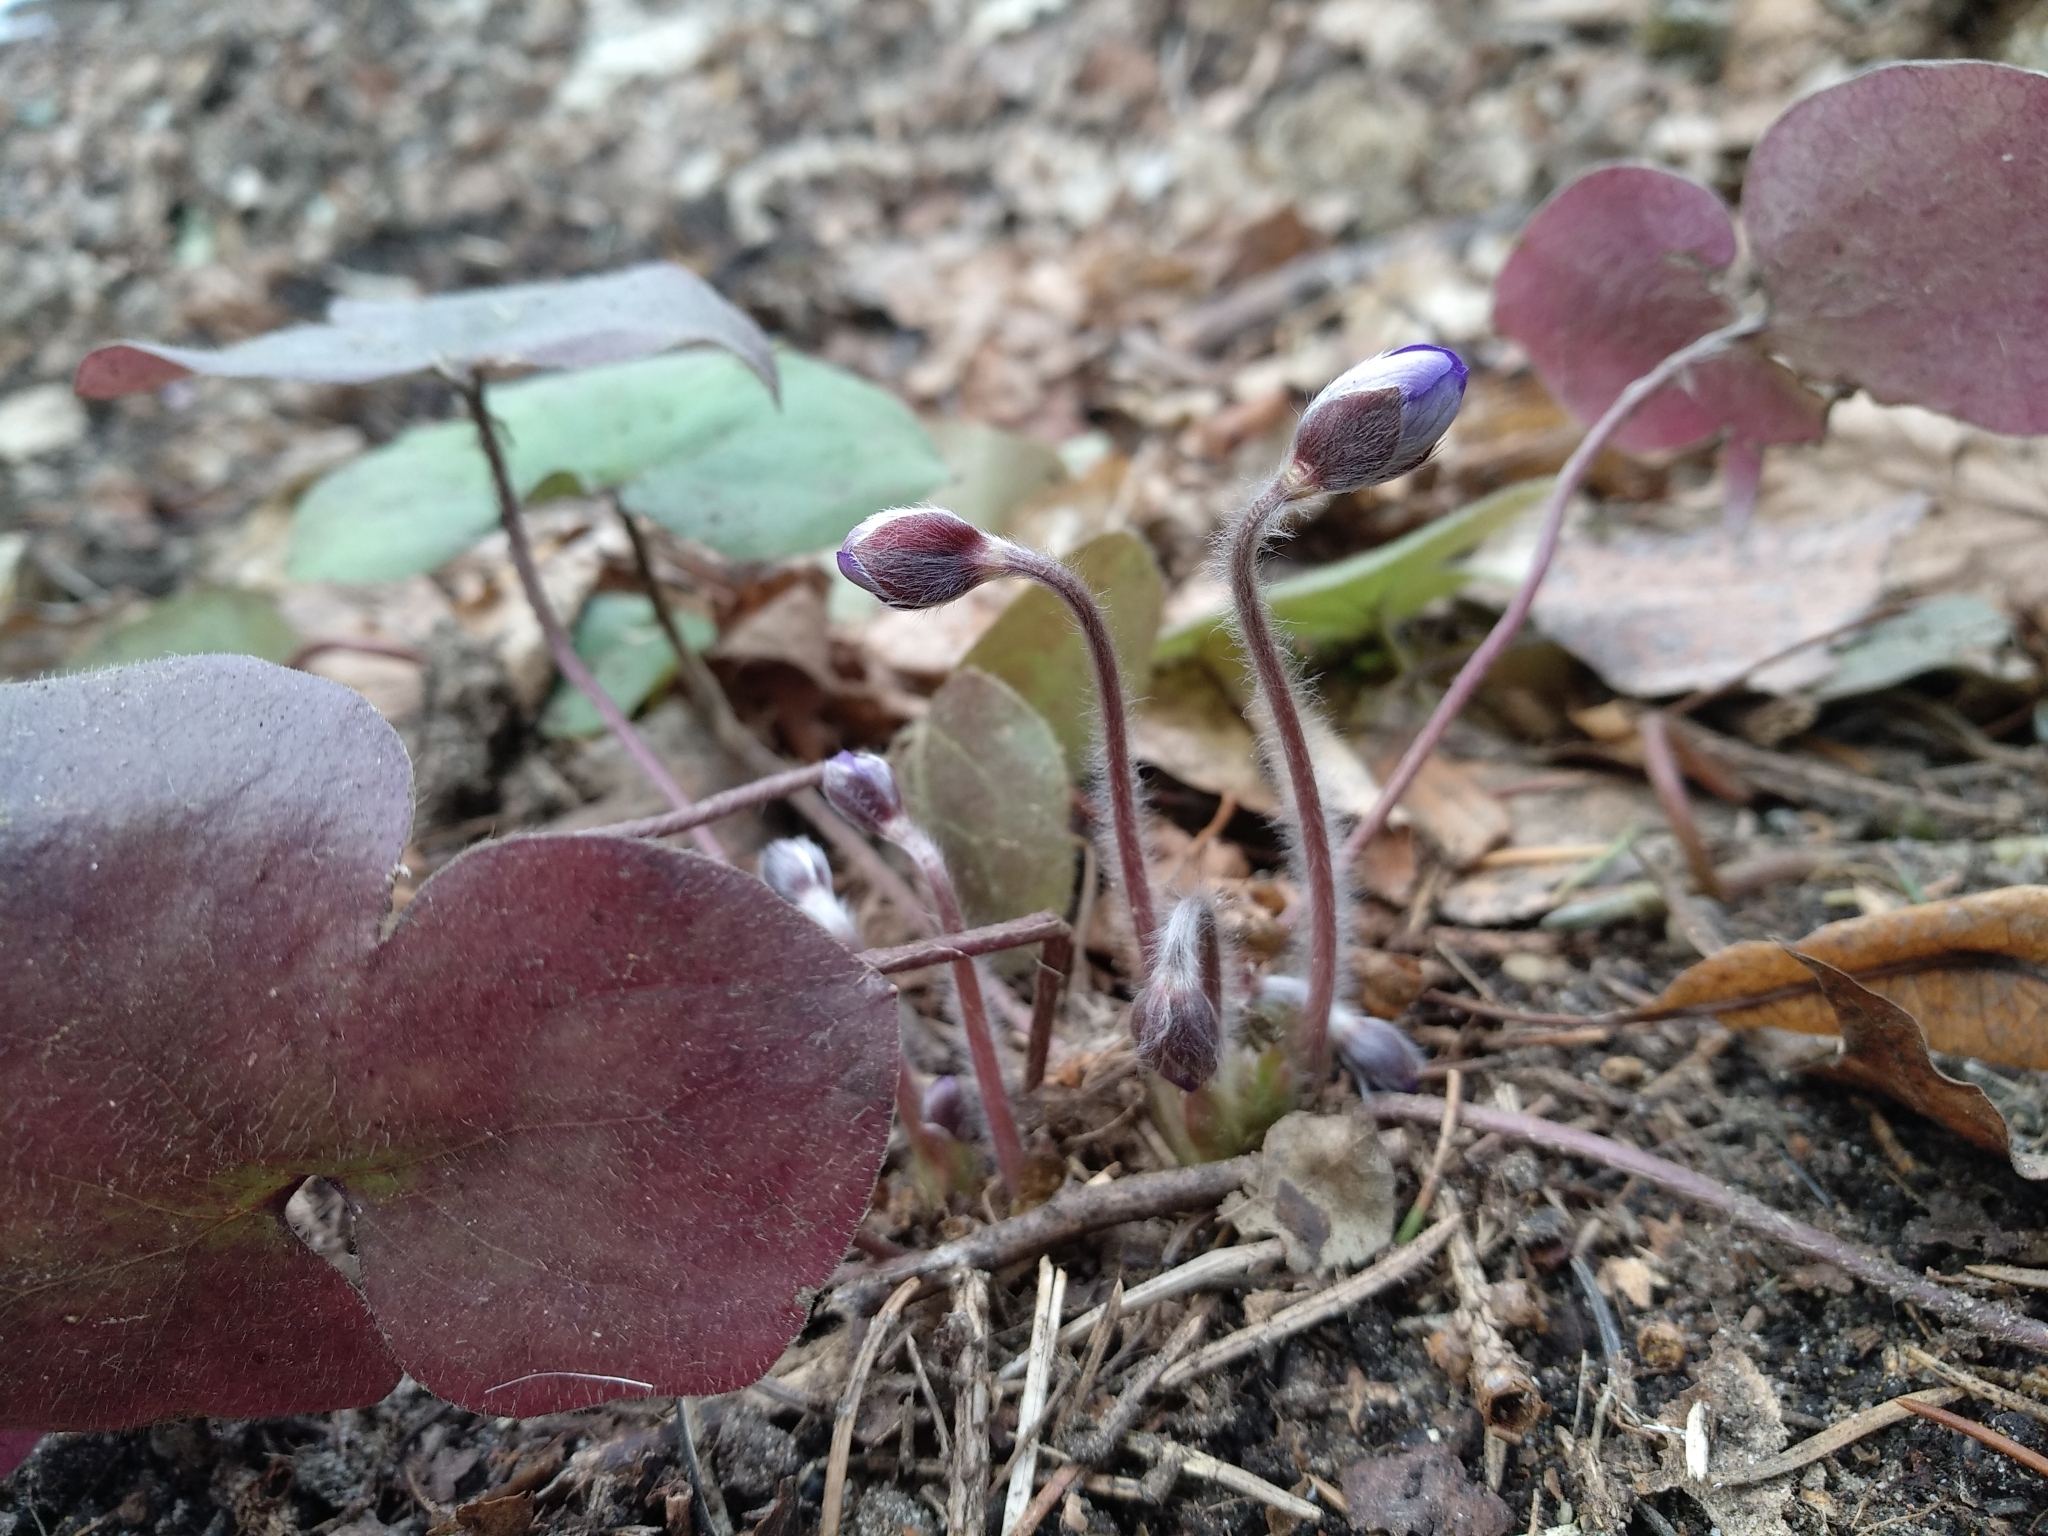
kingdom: Plantae
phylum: Tracheophyta
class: Magnoliopsida
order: Ranunculales
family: Ranunculaceae
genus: Hepatica
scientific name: Hepatica nobilis
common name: Liverleaf
